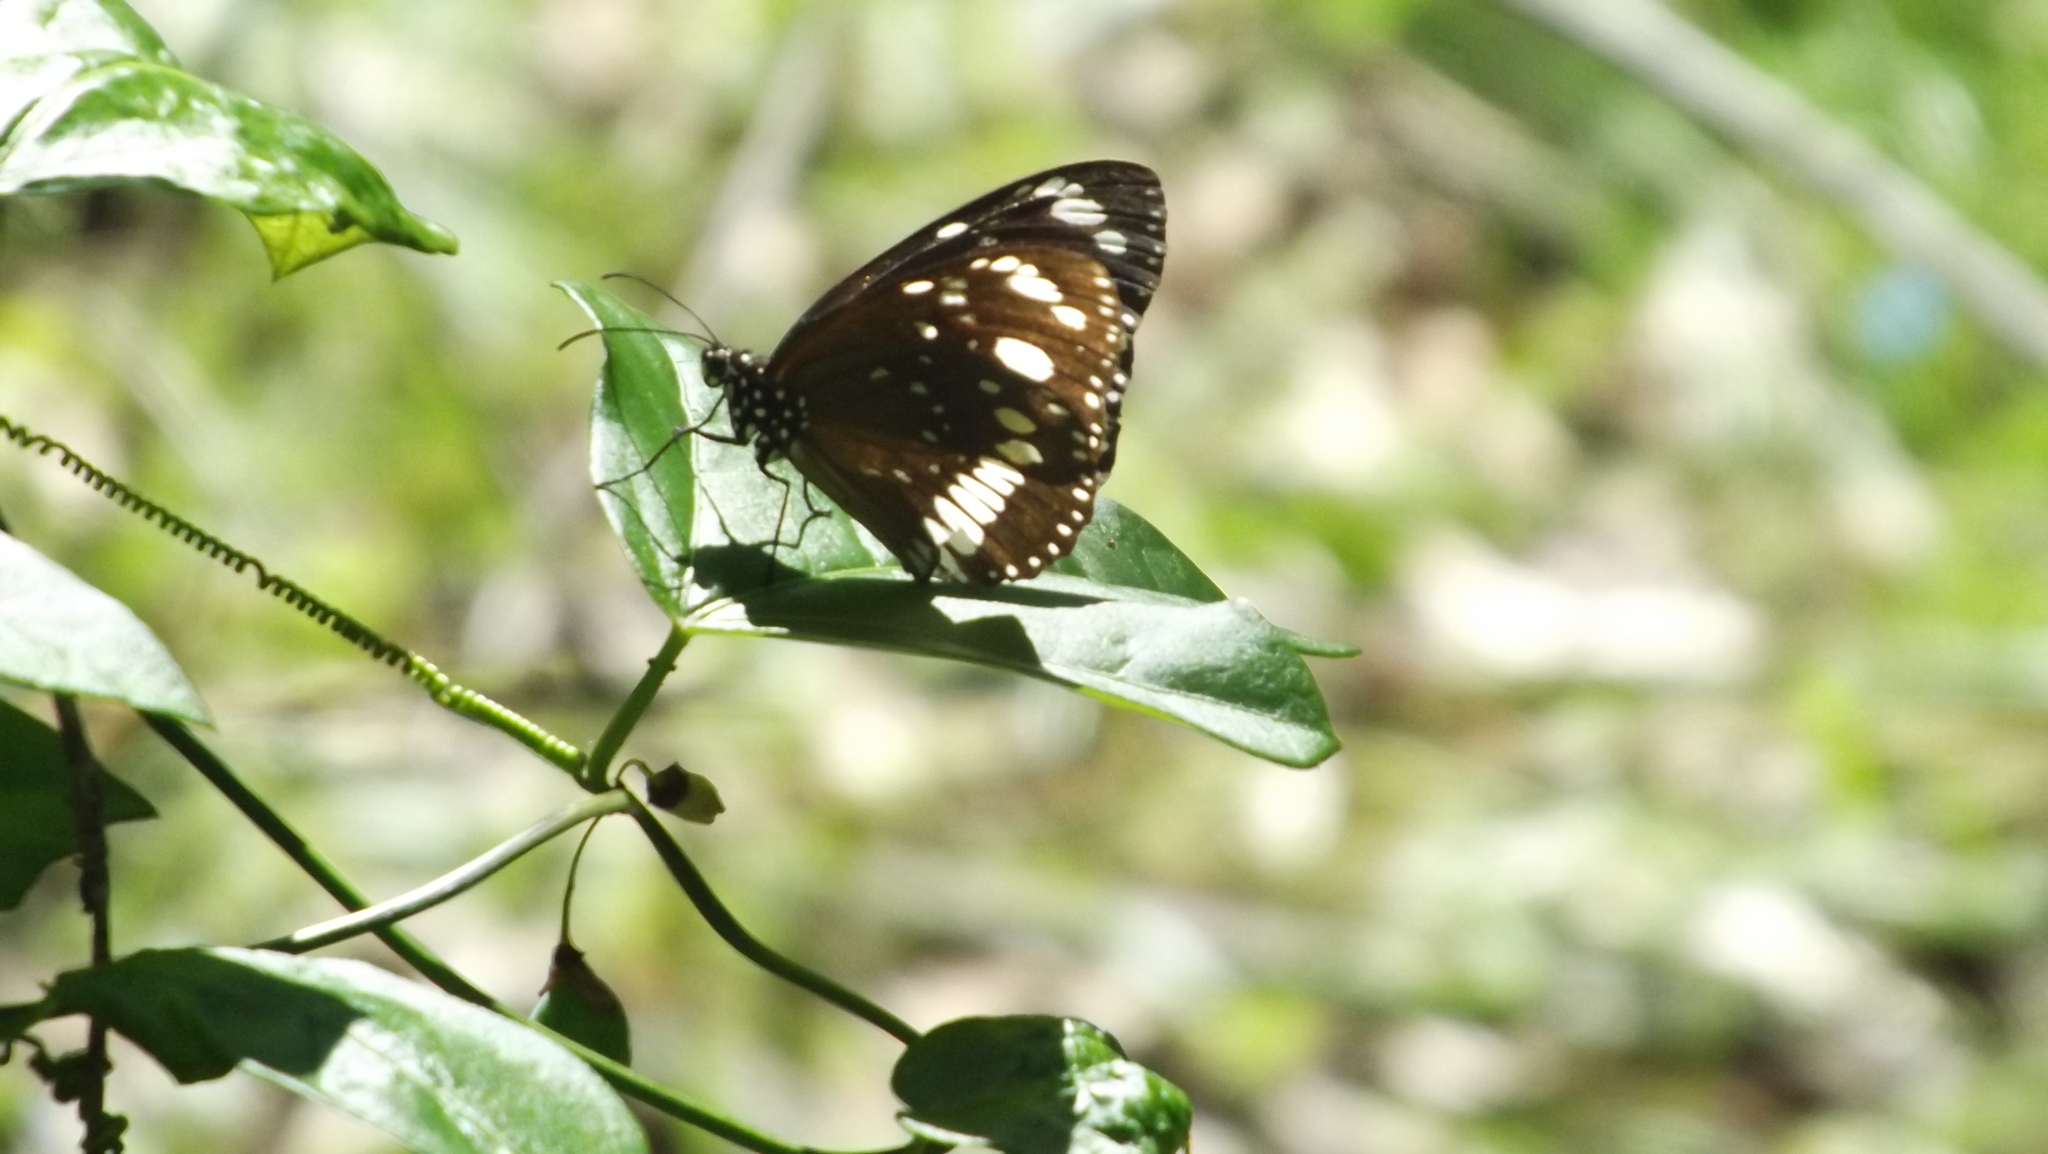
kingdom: Animalia
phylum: Arthropoda
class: Insecta
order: Lepidoptera
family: Nymphalidae
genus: Euploea
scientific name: Euploea core
